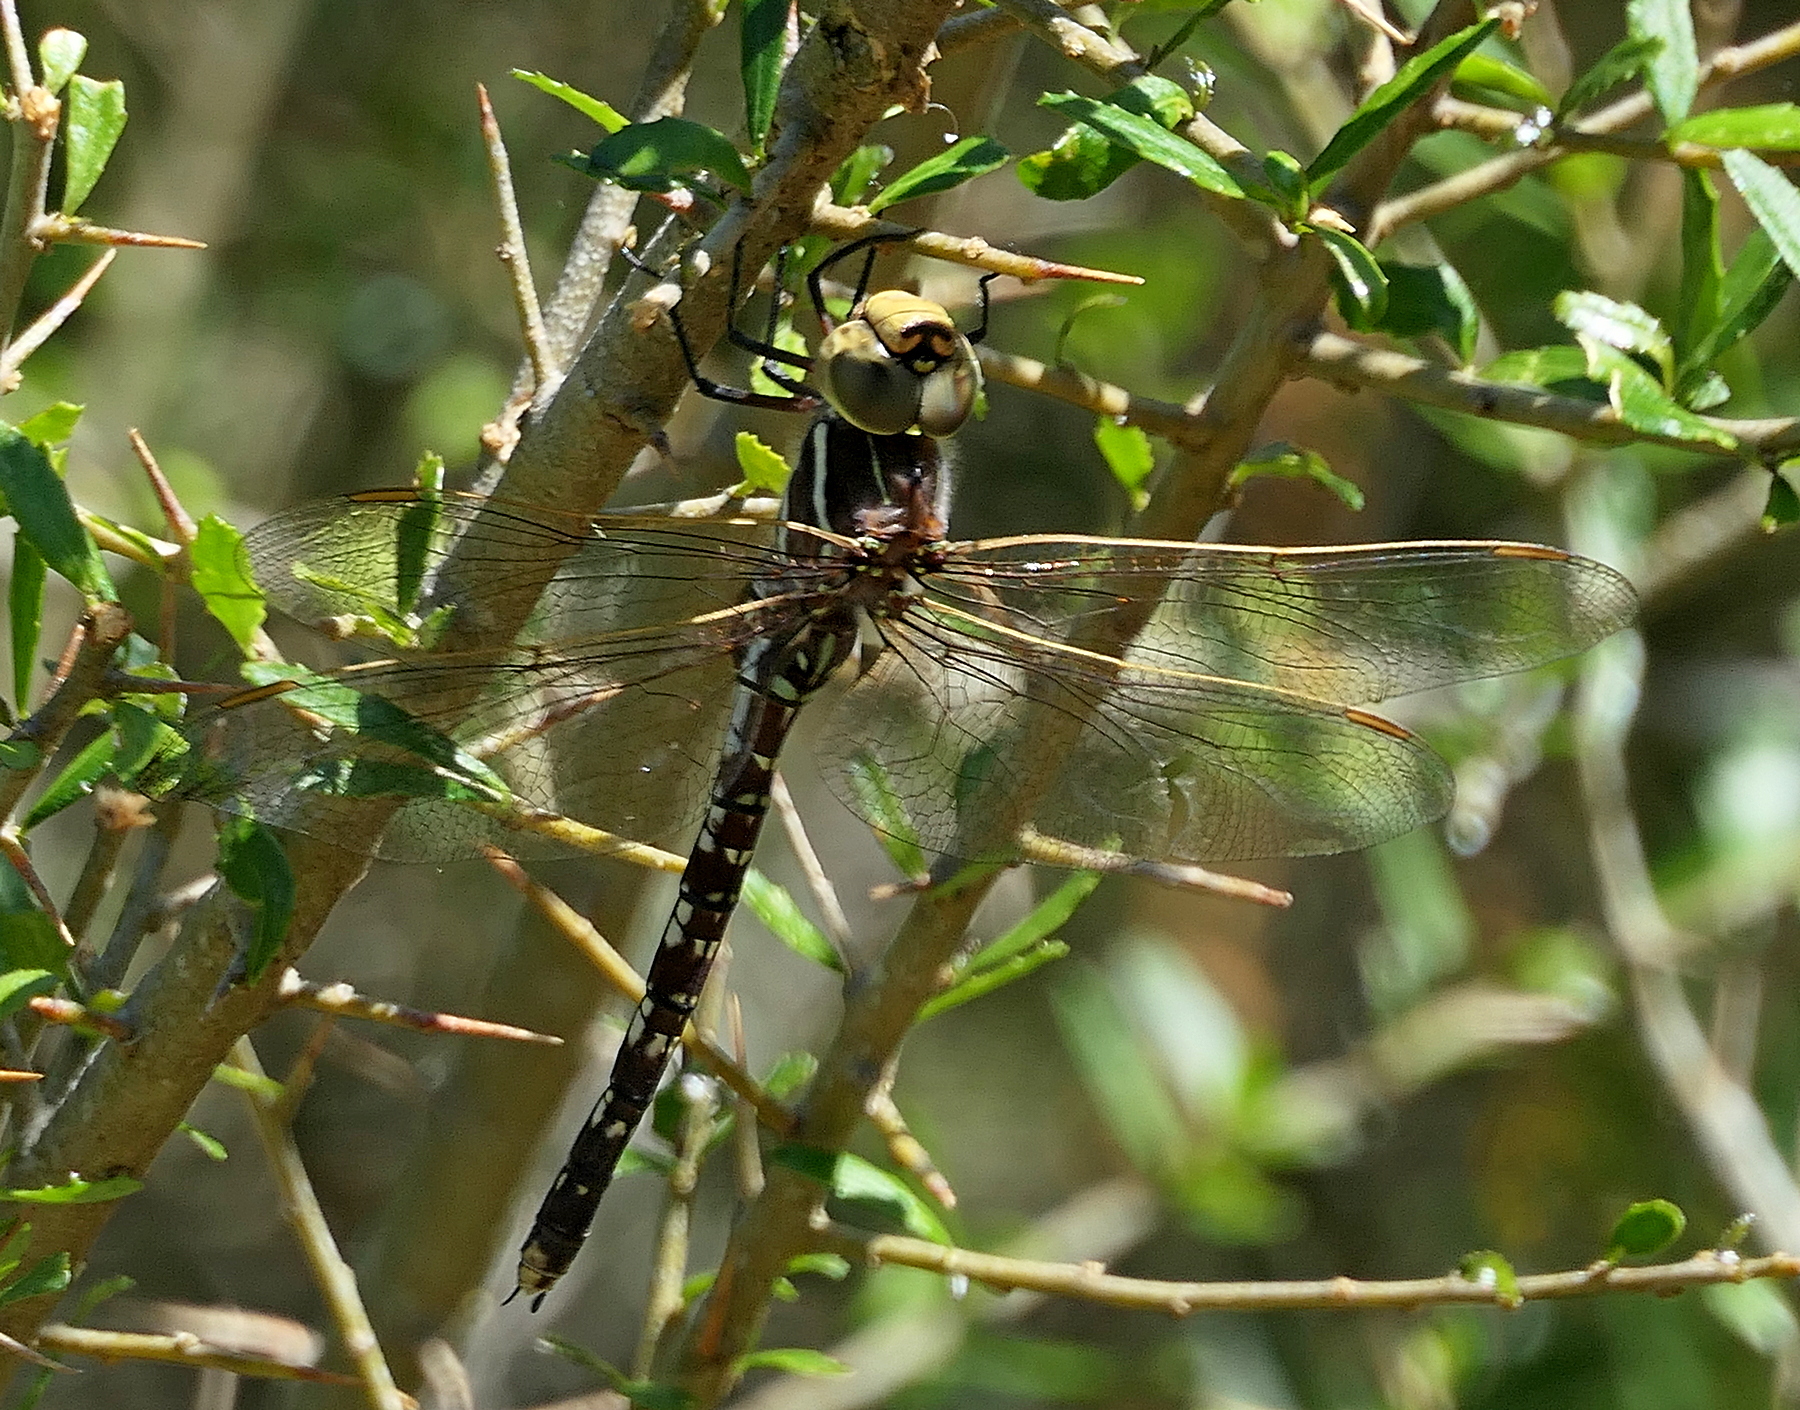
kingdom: Animalia
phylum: Arthropoda
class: Insecta
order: Odonata
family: Aeshnidae
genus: Aeshna
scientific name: Aeshna brevistyla
